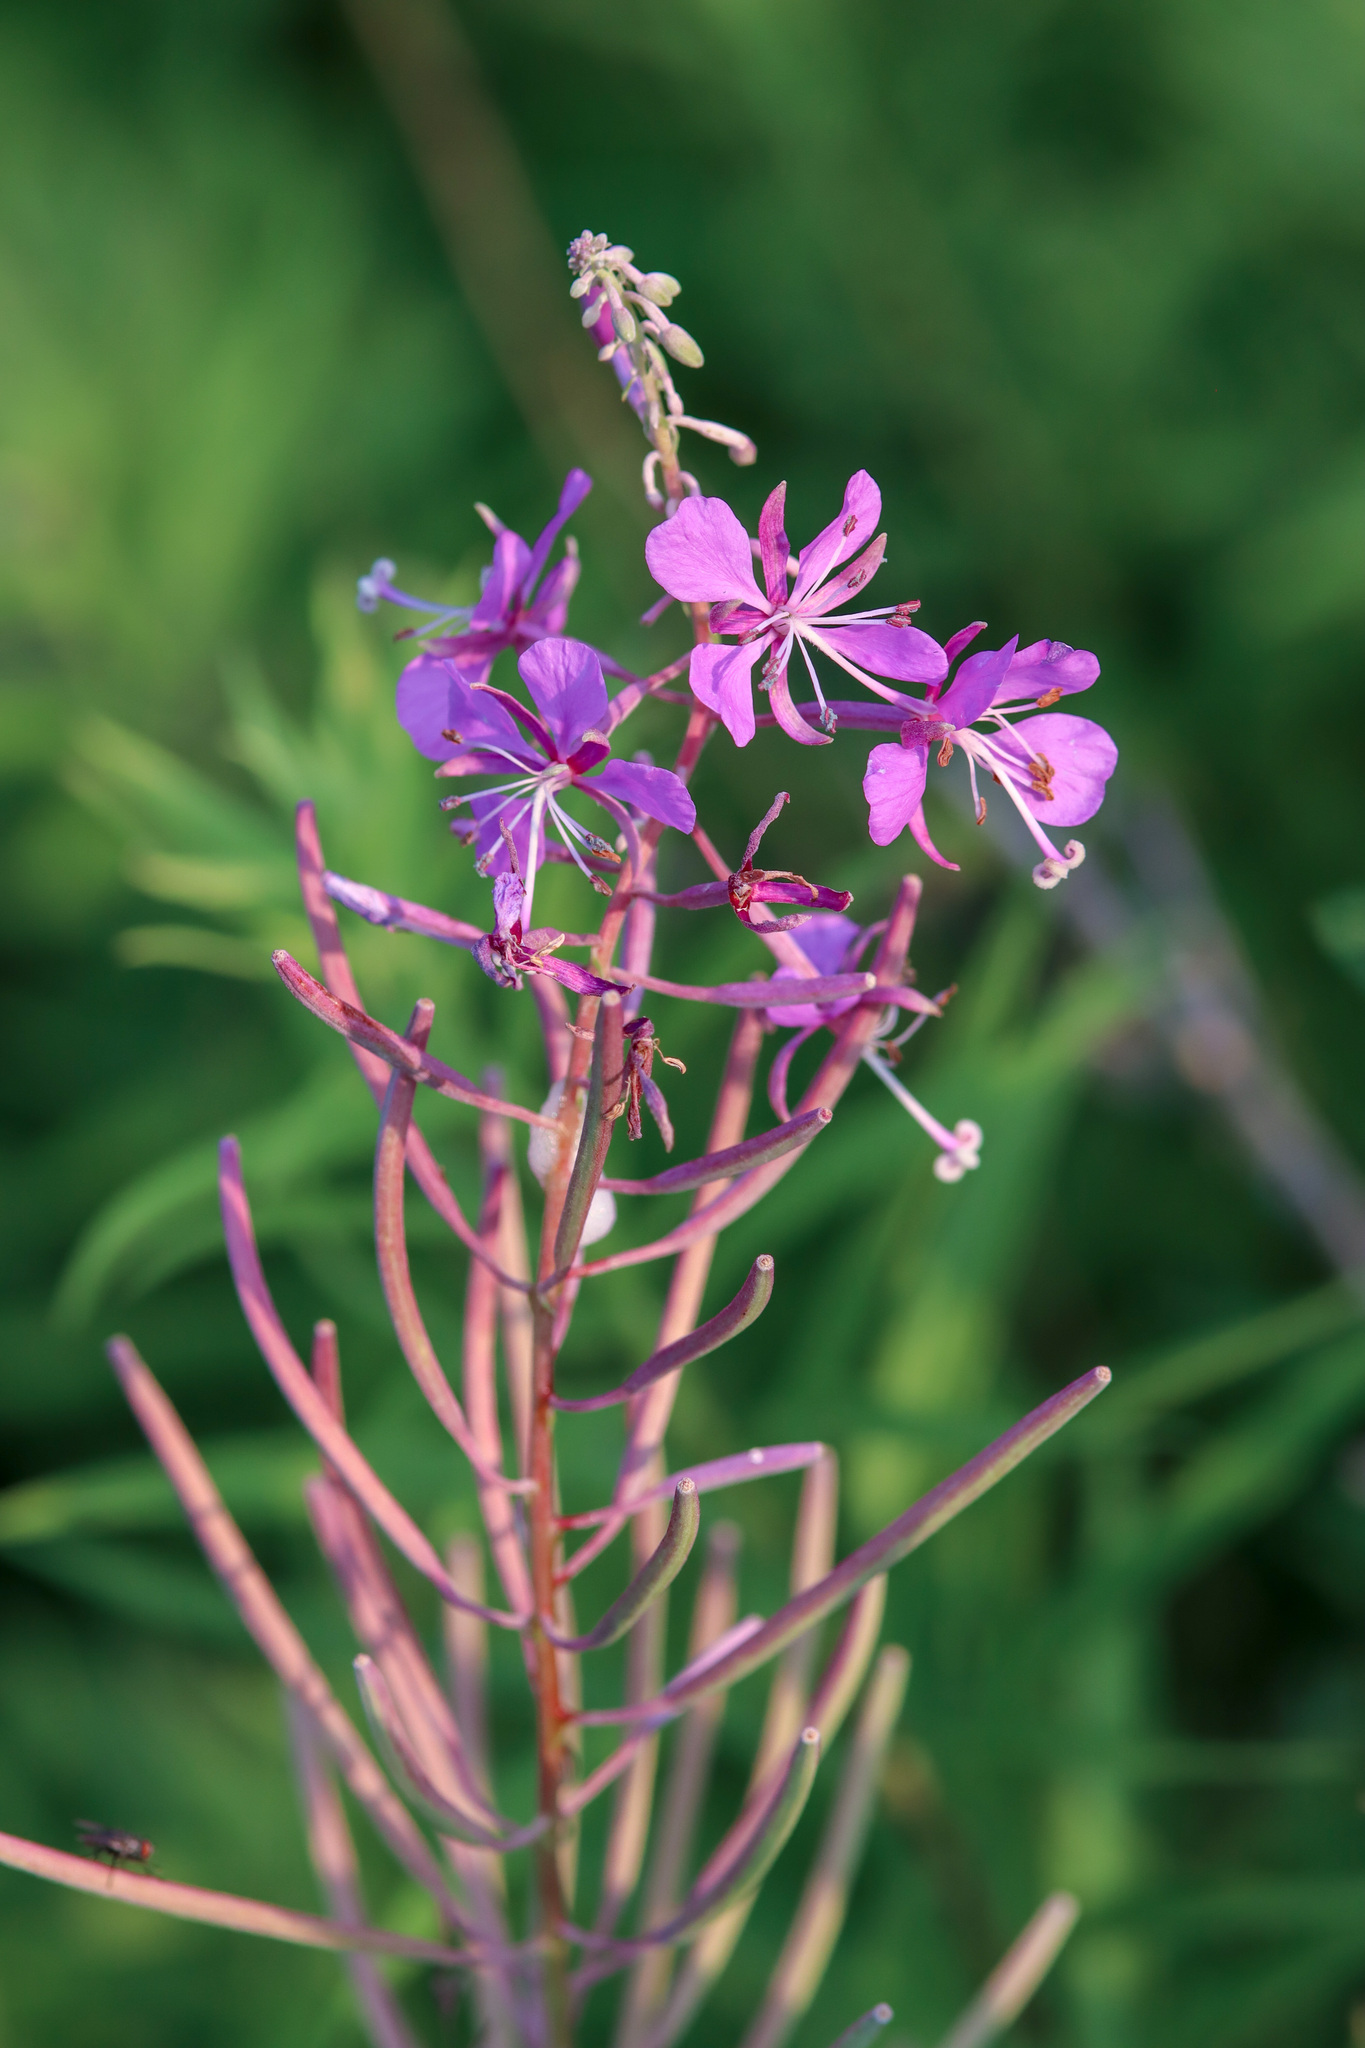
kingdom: Plantae
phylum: Tracheophyta
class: Magnoliopsida
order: Myrtales
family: Onagraceae
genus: Chamaenerion
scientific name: Chamaenerion angustifolium
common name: Fireweed
